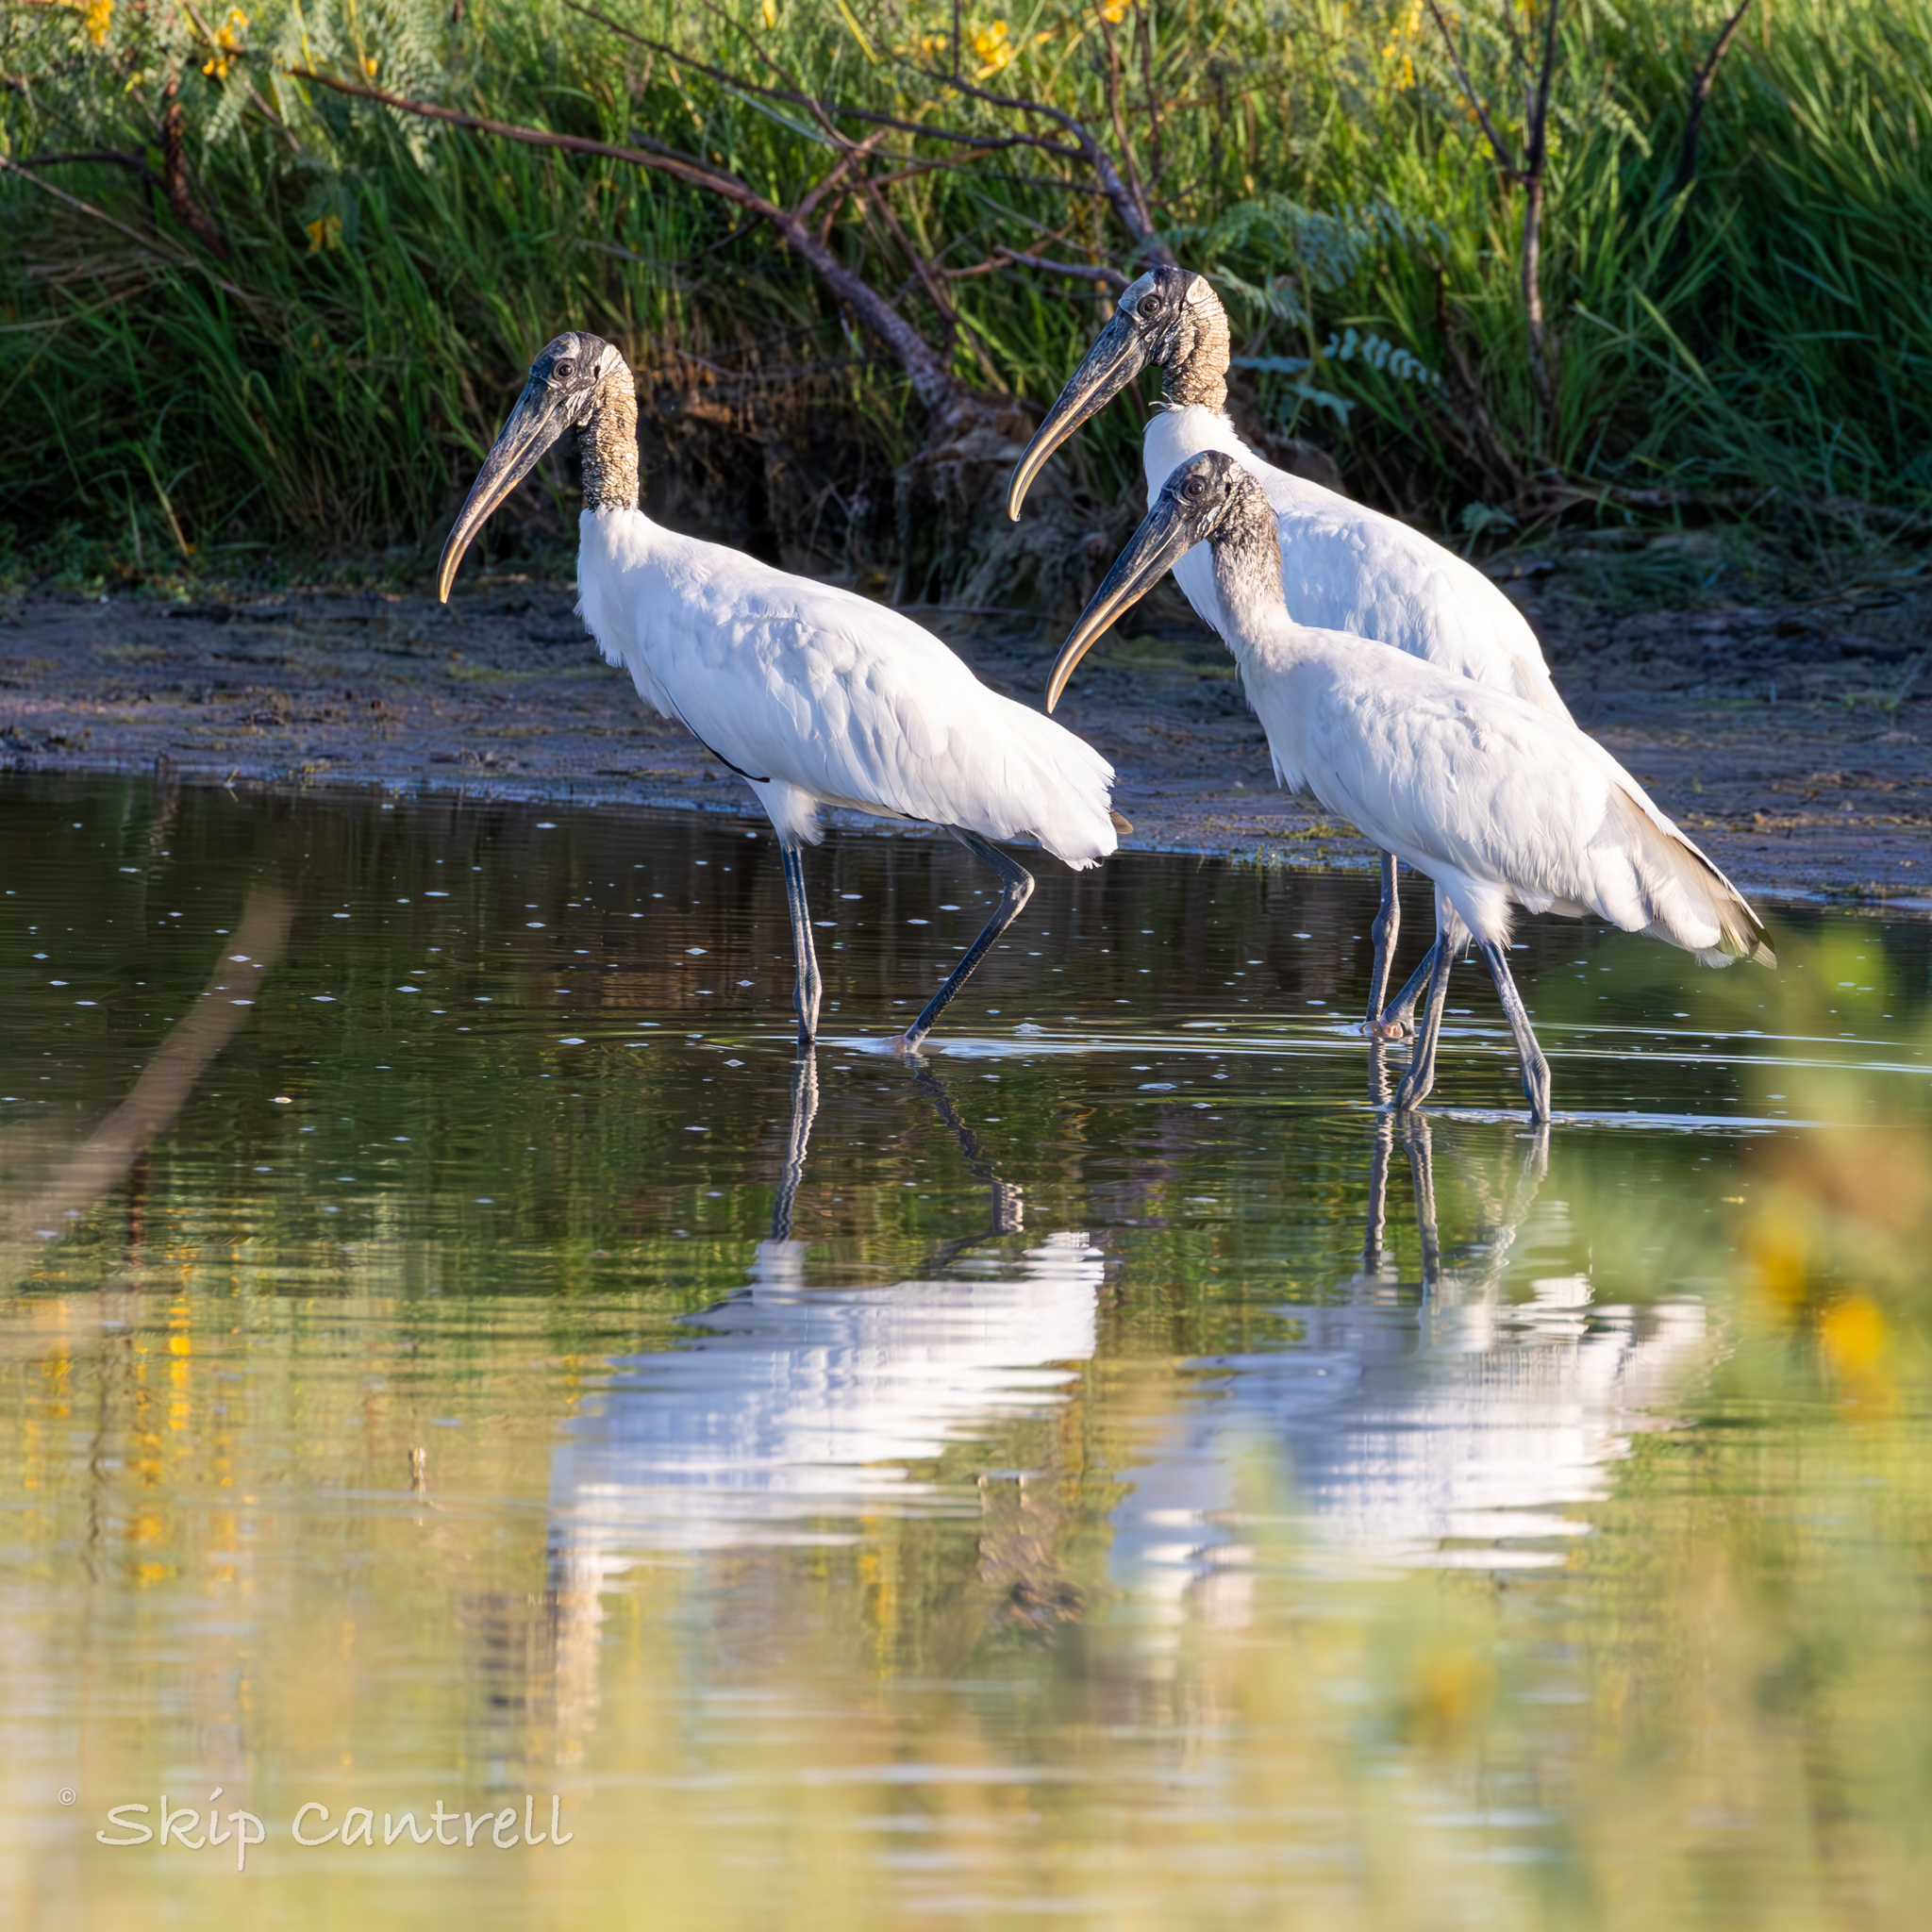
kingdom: Animalia
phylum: Chordata
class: Aves
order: Ciconiiformes
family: Ciconiidae
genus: Mycteria
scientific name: Mycteria americana
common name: Wood stork
